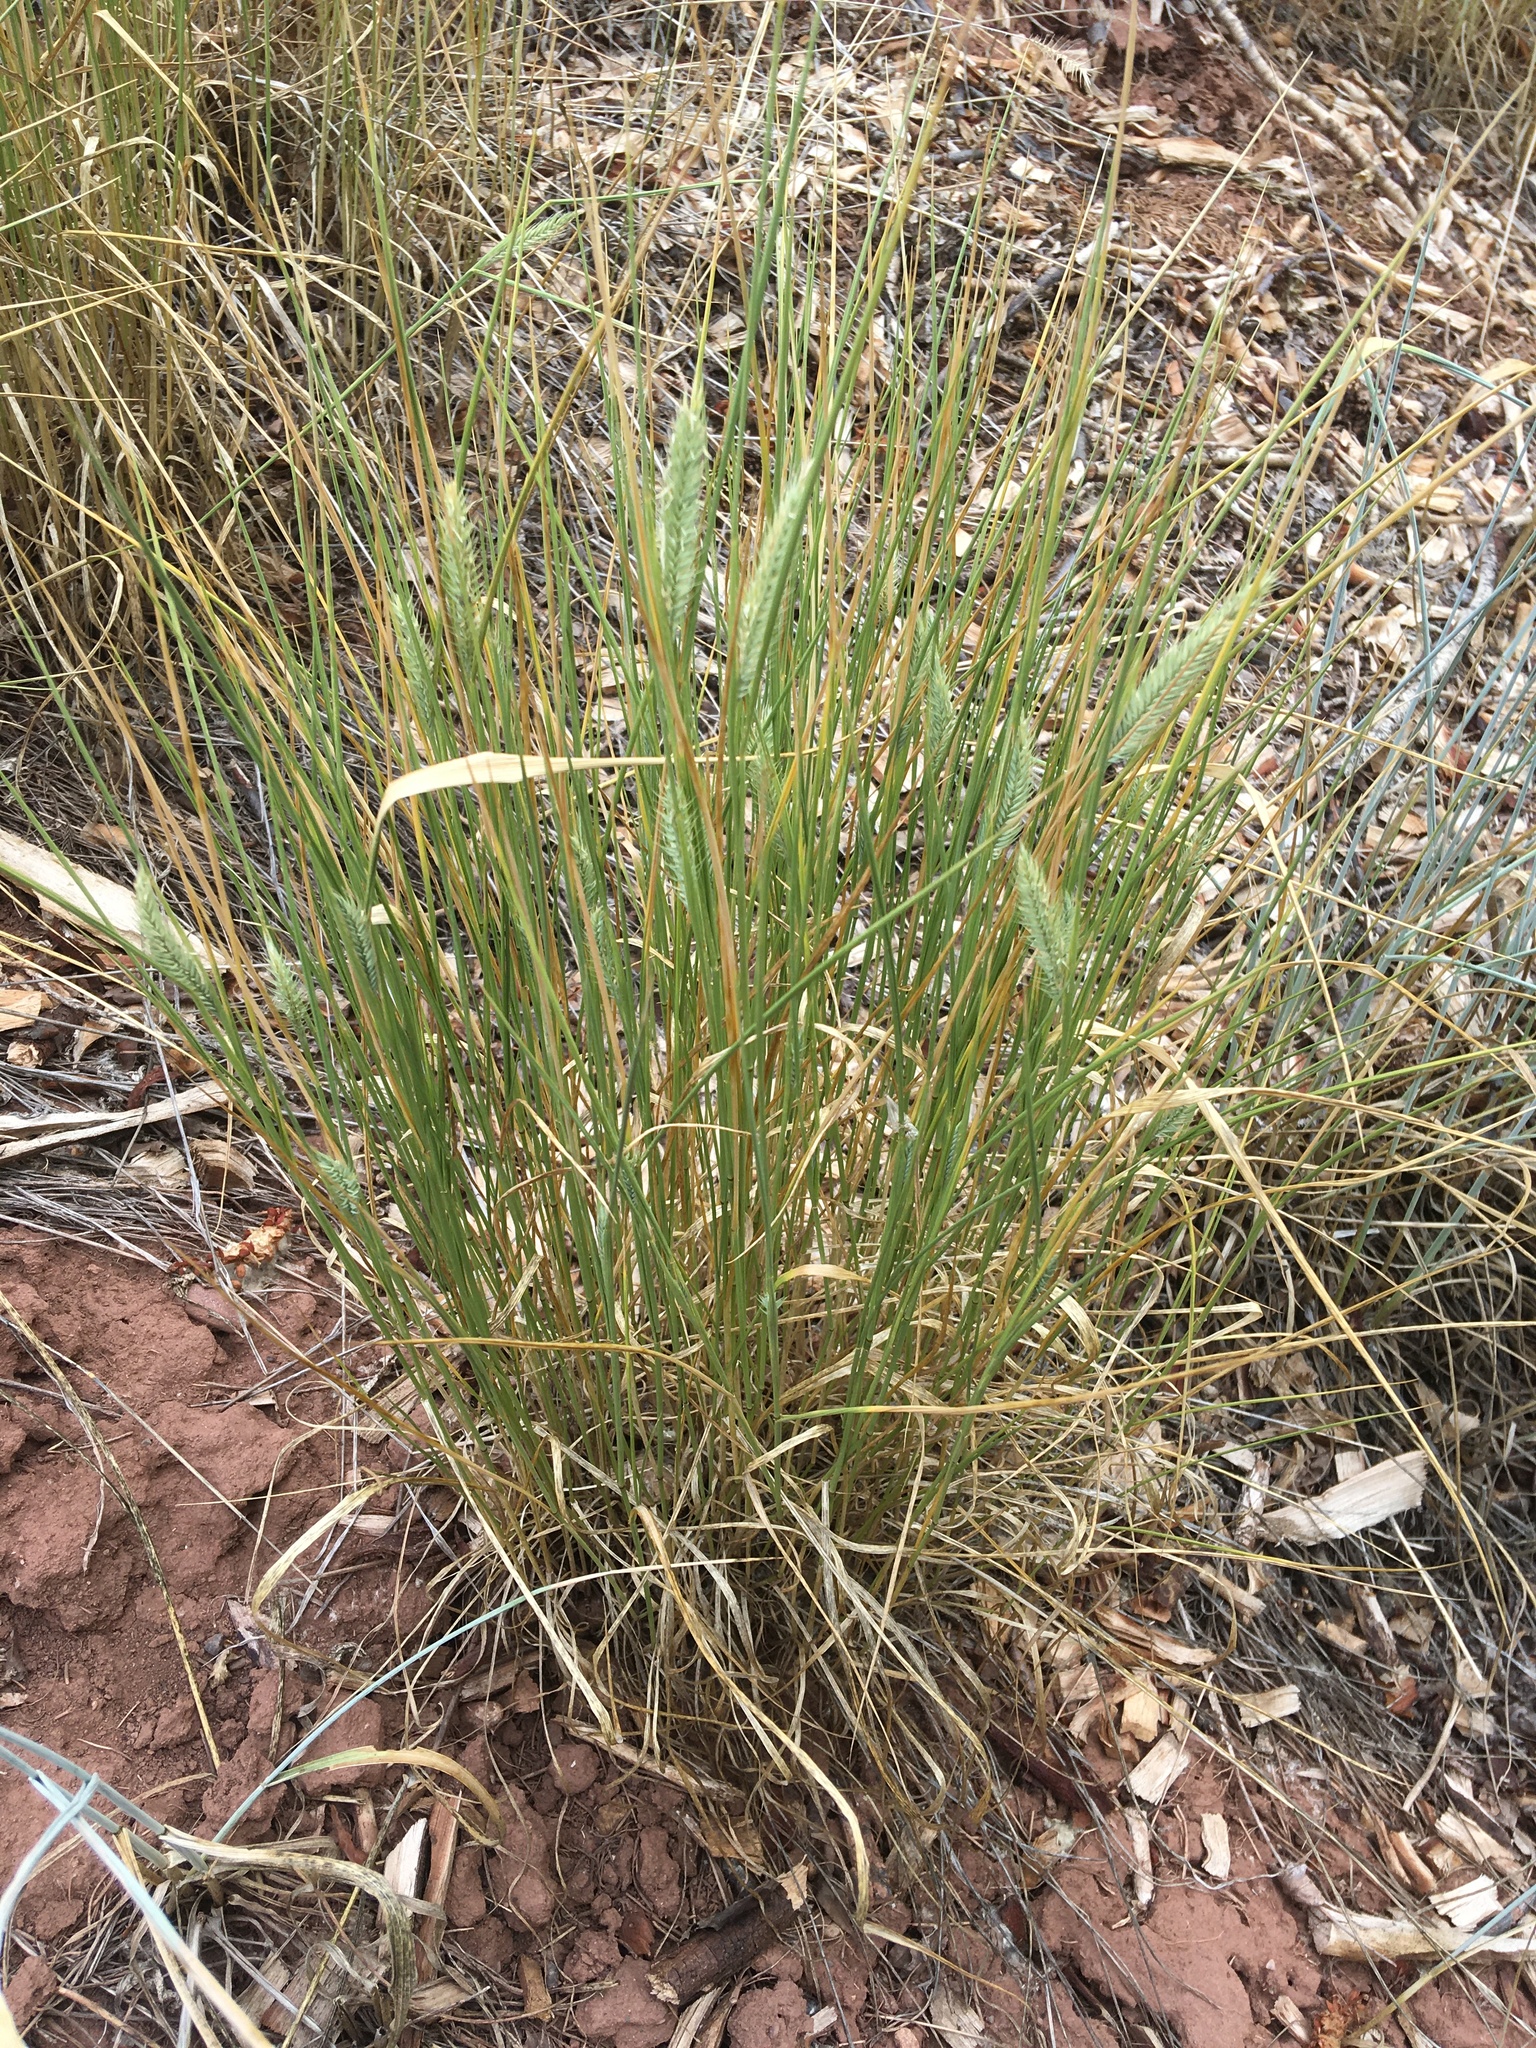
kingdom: Plantae
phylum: Tracheophyta
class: Liliopsida
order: Poales
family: Poaceae
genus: Agropyron
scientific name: Agropyron cristatum
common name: Crested wheatgrass
